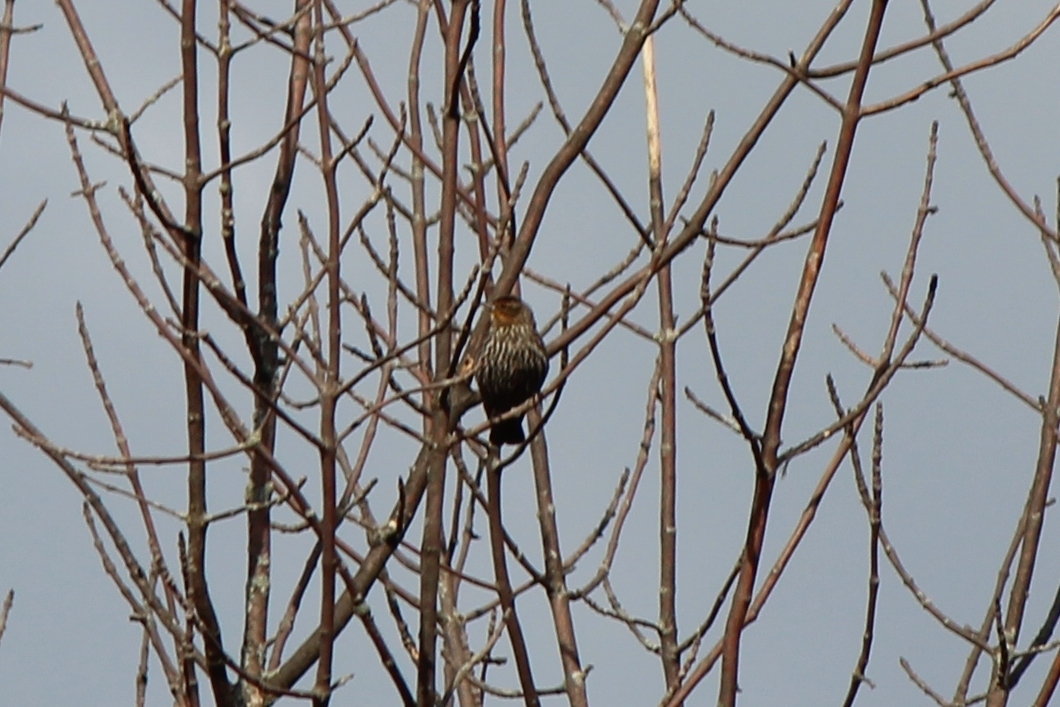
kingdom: Animalia
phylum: Chordata
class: Aves
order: Passeriformes
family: Icteridae
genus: Agelaius
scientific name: Agelaius phoeniceus
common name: Red-winged blackbird
